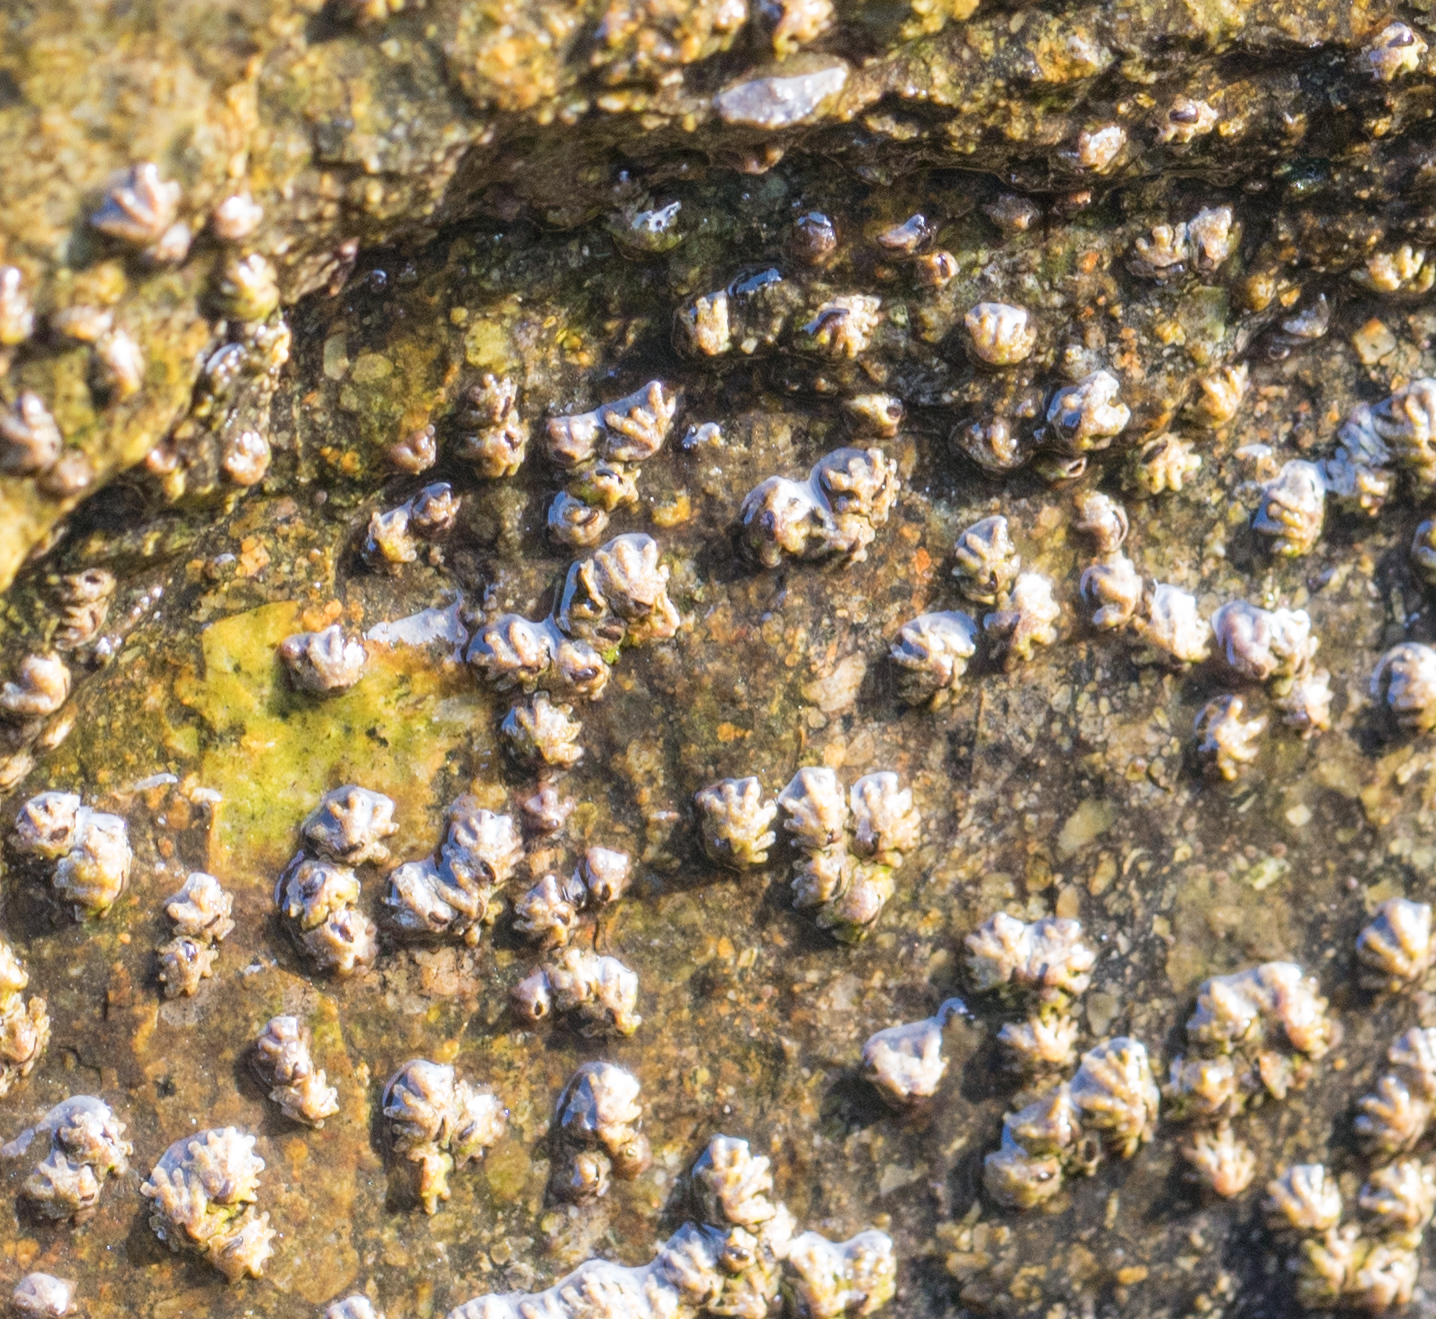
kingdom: Animalia
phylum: Arthropoda
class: Maxillopoda
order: Sessilia
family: Chthamalidae
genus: Chthamalus
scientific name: Chthamalus fissus
